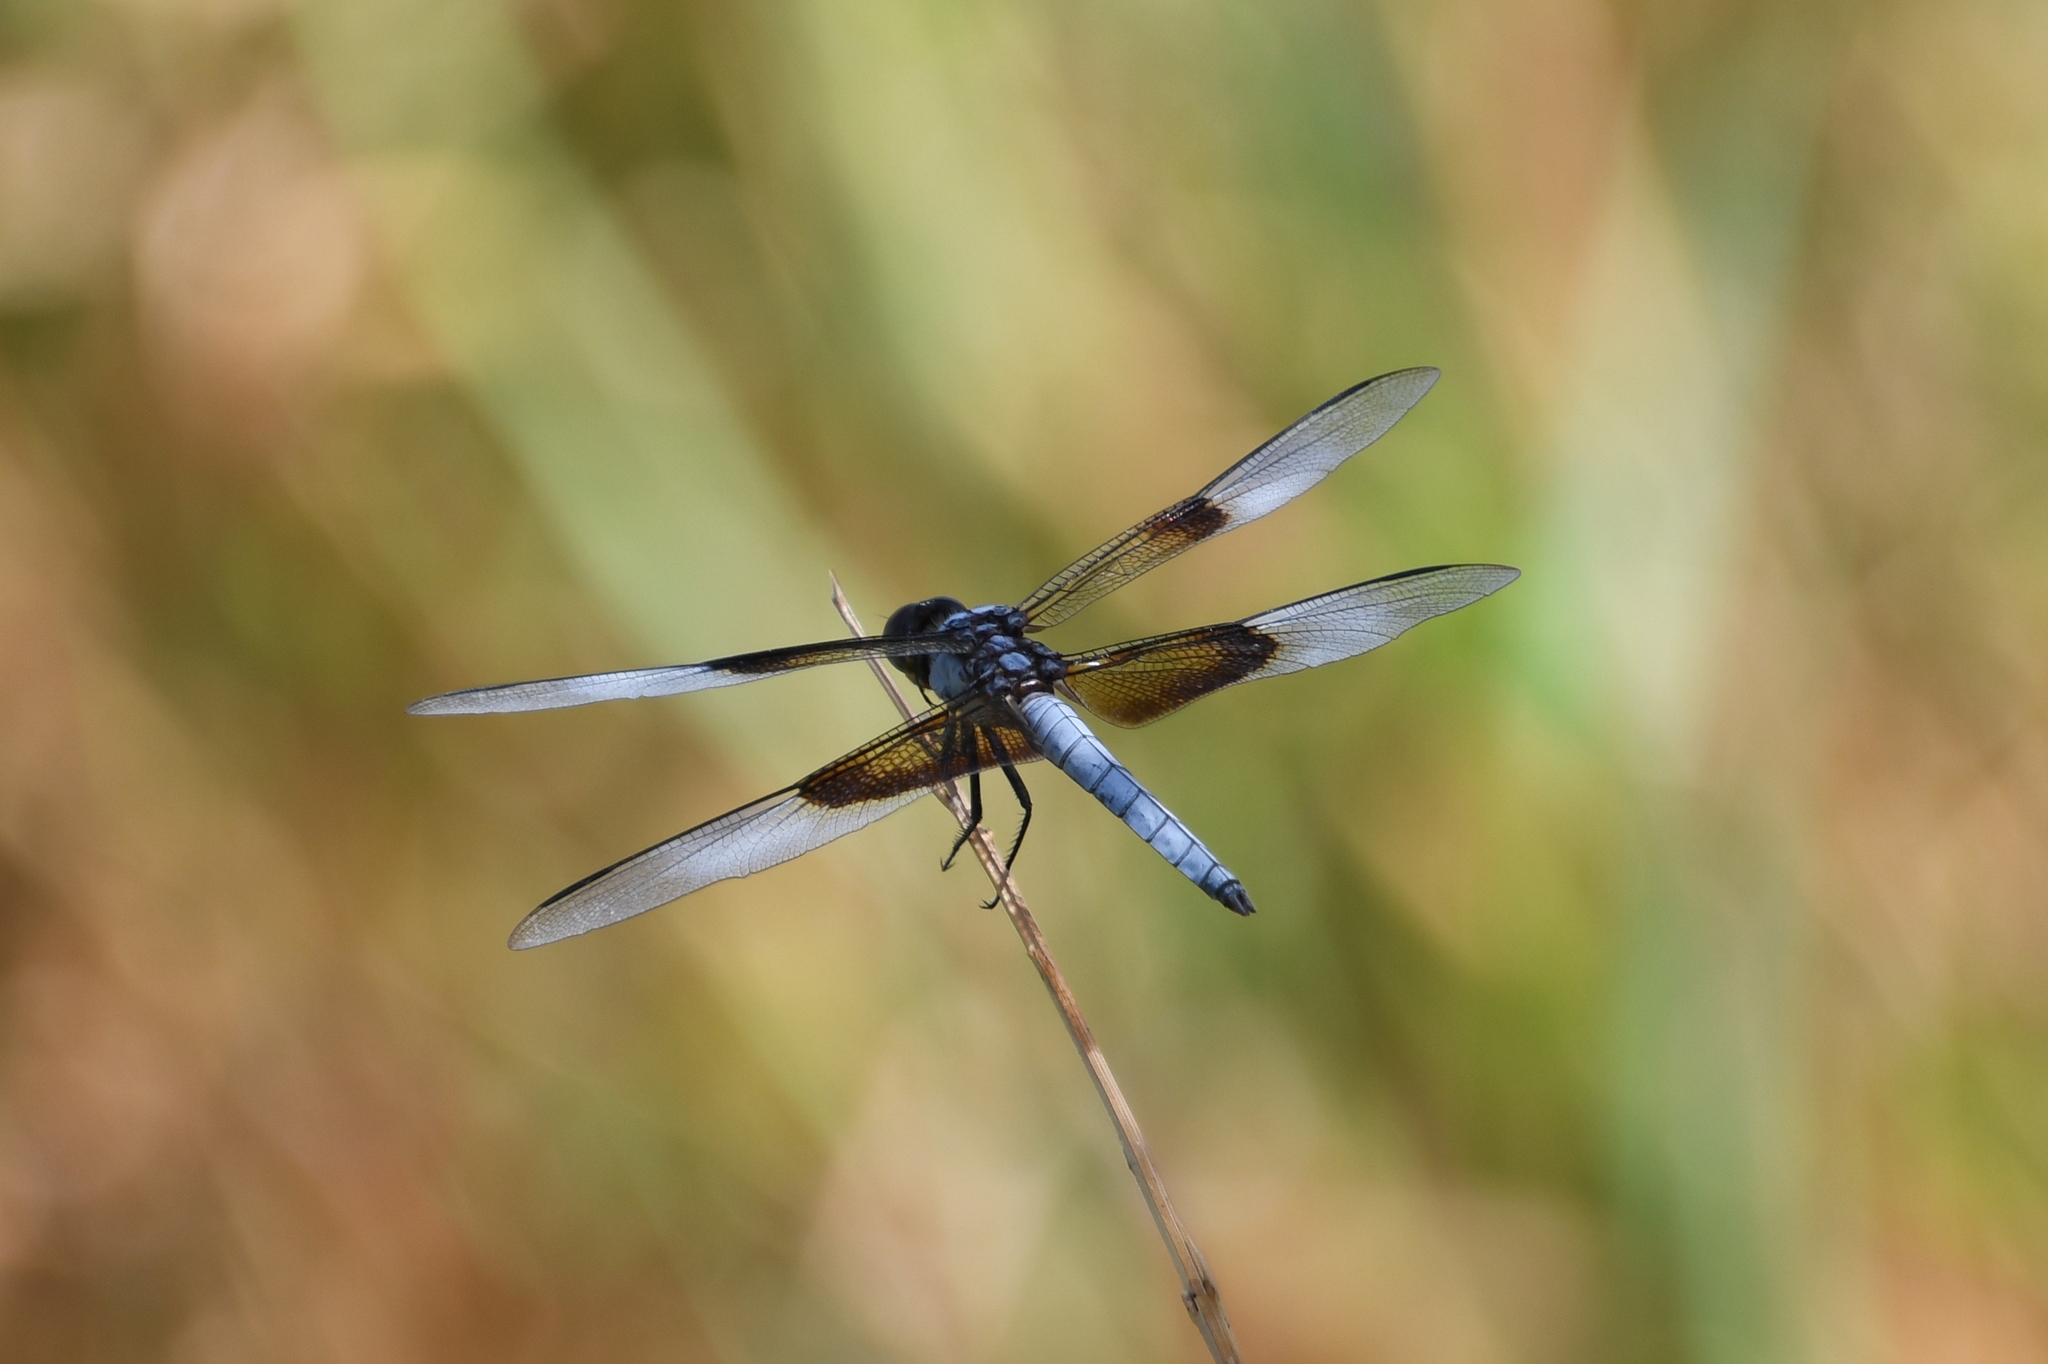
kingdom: Animalia
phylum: Arthropoda
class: Insecta
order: Odonata
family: Libellulidae
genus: Libellula
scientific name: Libellula luctuosa
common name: Widow skimmer
